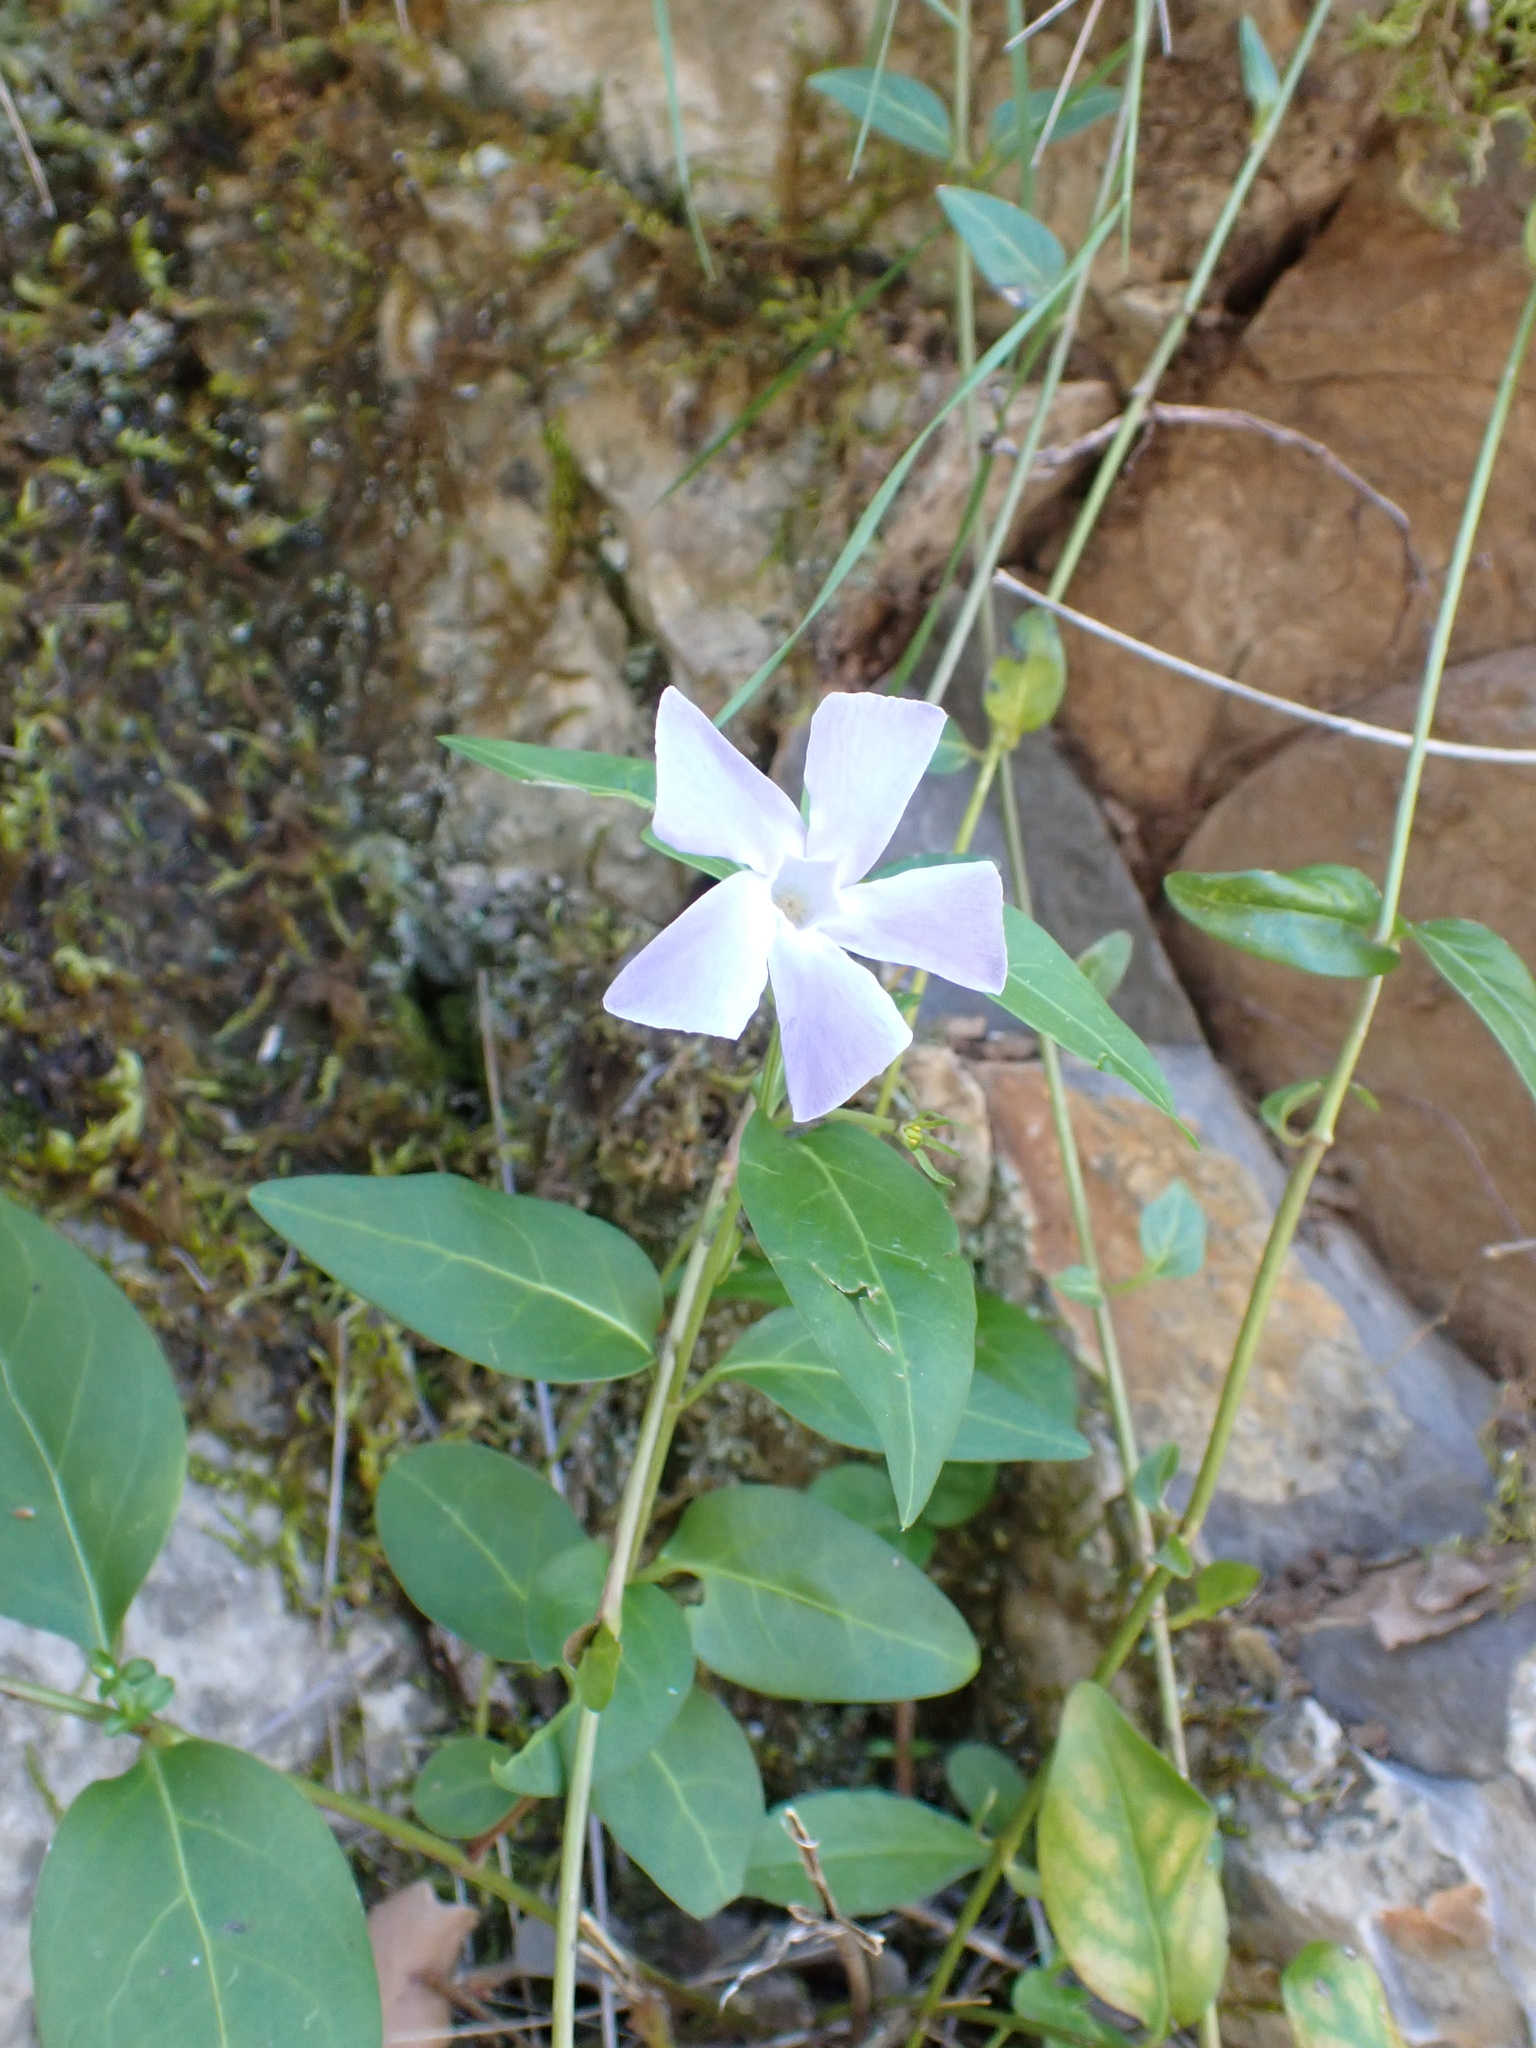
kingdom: Plantae
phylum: Tracheophyta
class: Magnoliopsida
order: Gentianales
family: Apocynaceae
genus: Vinca
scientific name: Vinca difformis
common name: Intermediate periwinkle
